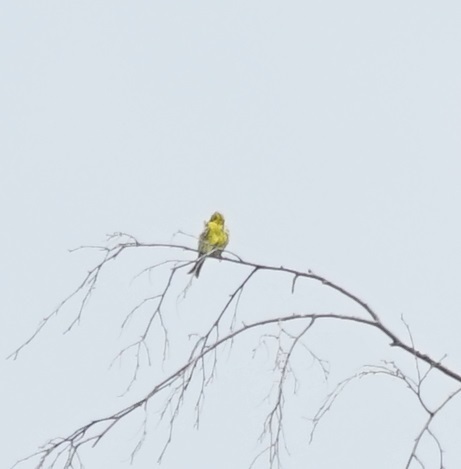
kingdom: Animalia
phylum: Chordata
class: Aves
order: Passeriformes
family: Fringillidae
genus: Serinus
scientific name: Serinus serinus
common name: European serin
